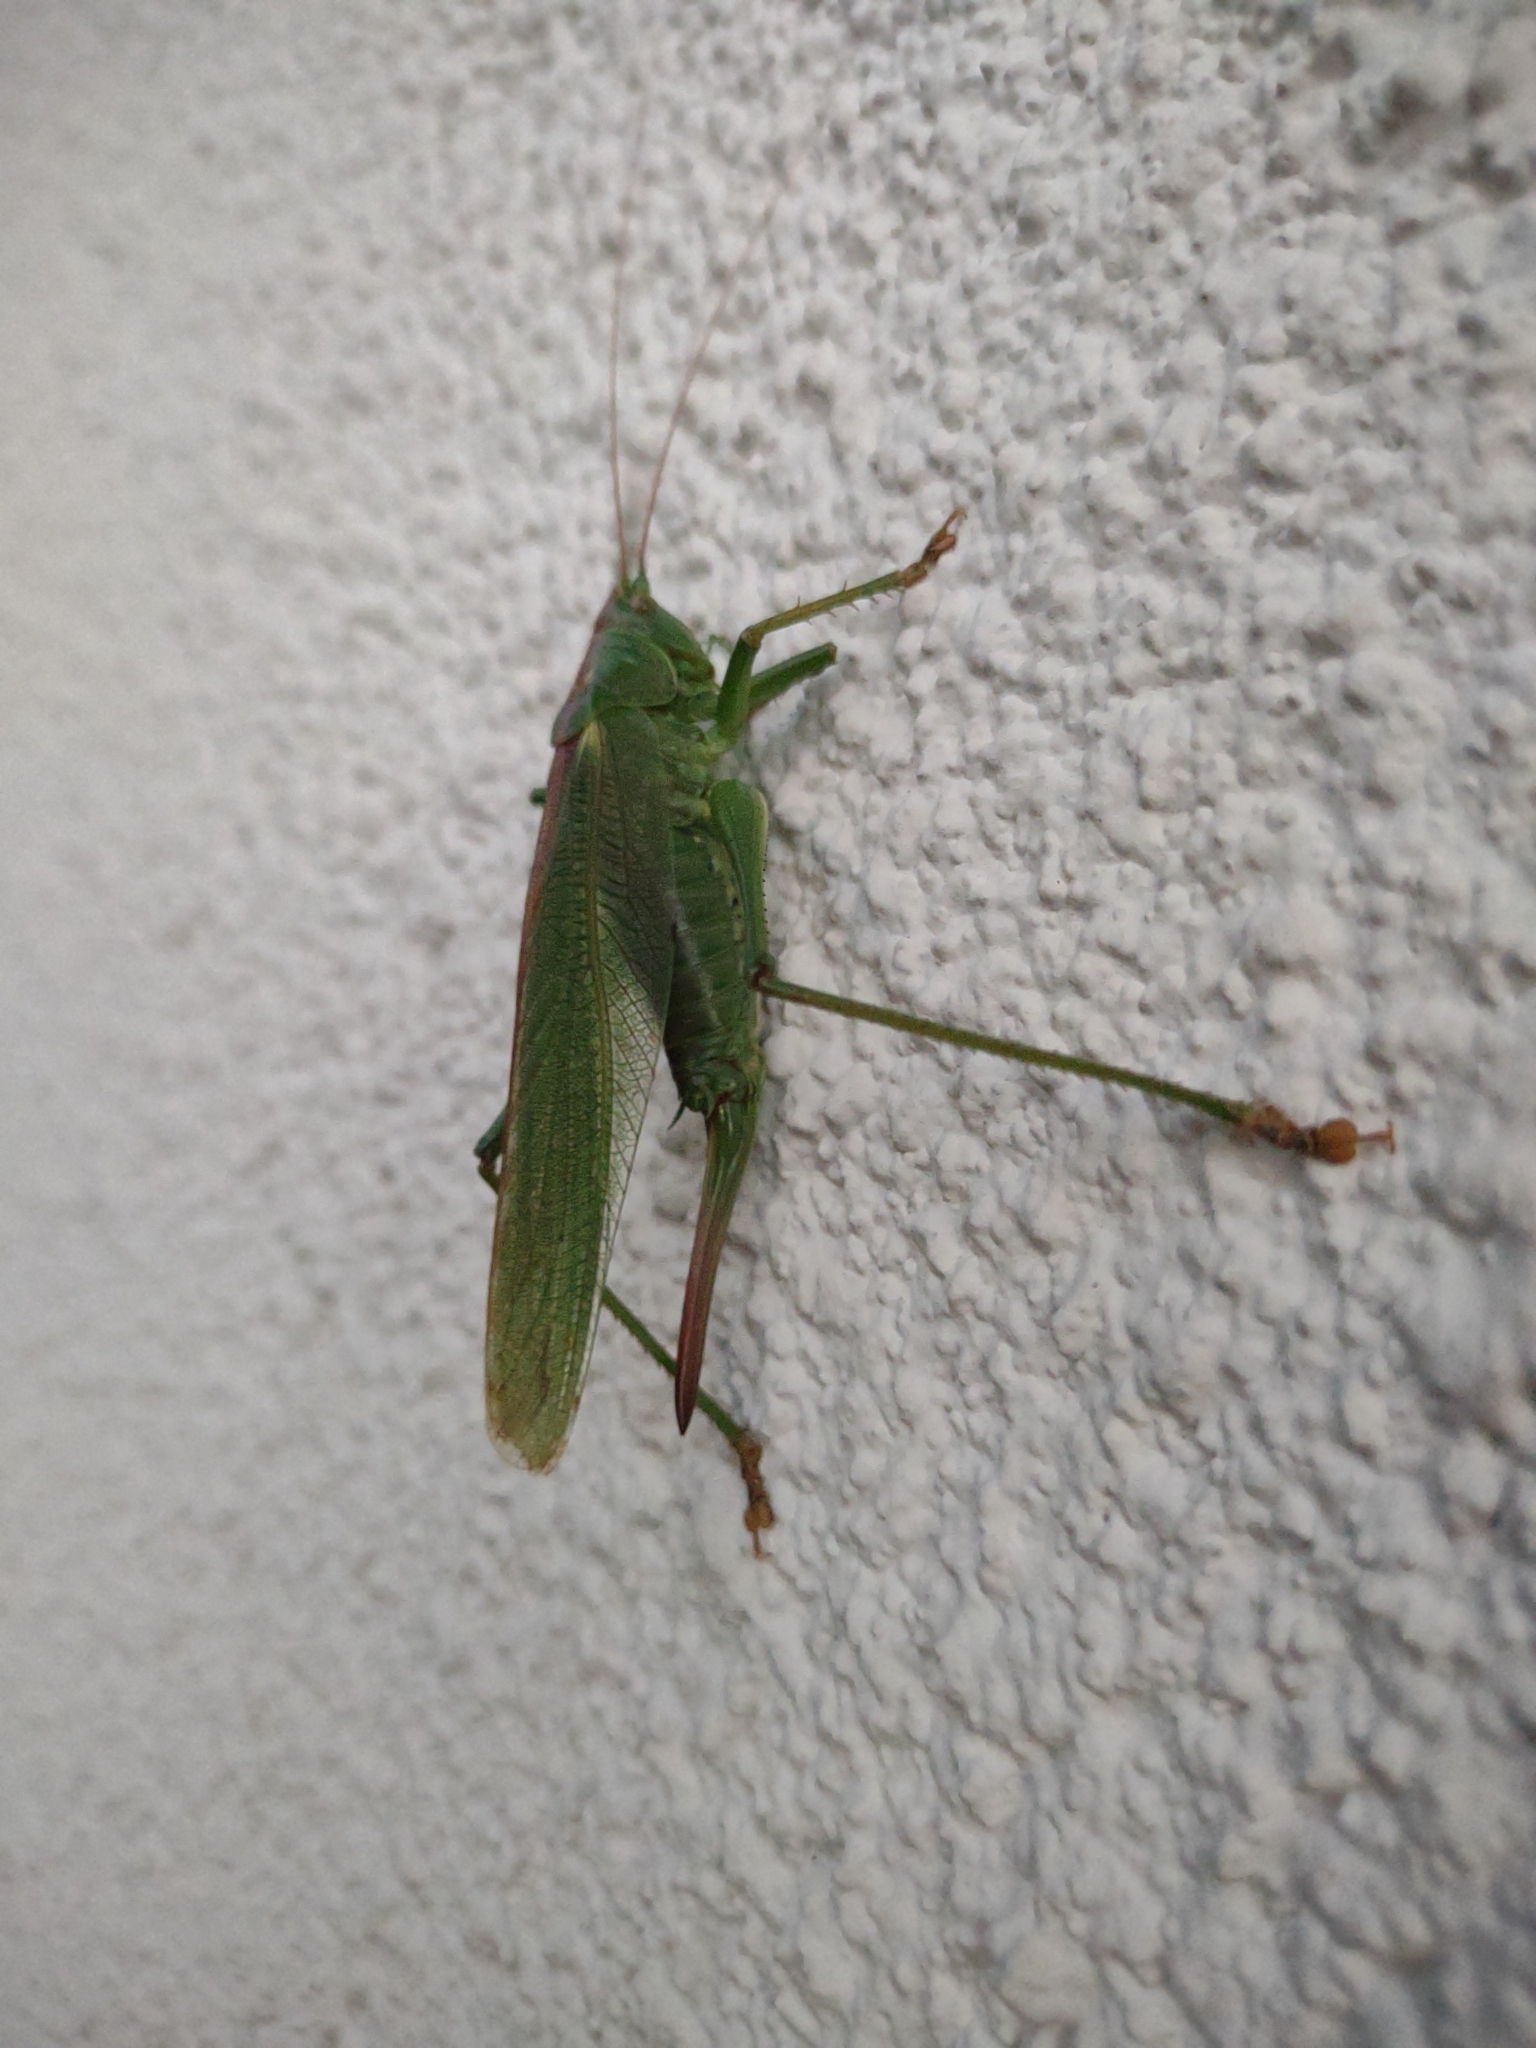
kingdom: Animalia
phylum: Arthropoda
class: Insecta
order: Orthoptera
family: Tettigoniidae
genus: Tettigonia
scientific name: Tettigonia viridissima
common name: Great green bush-cricket
